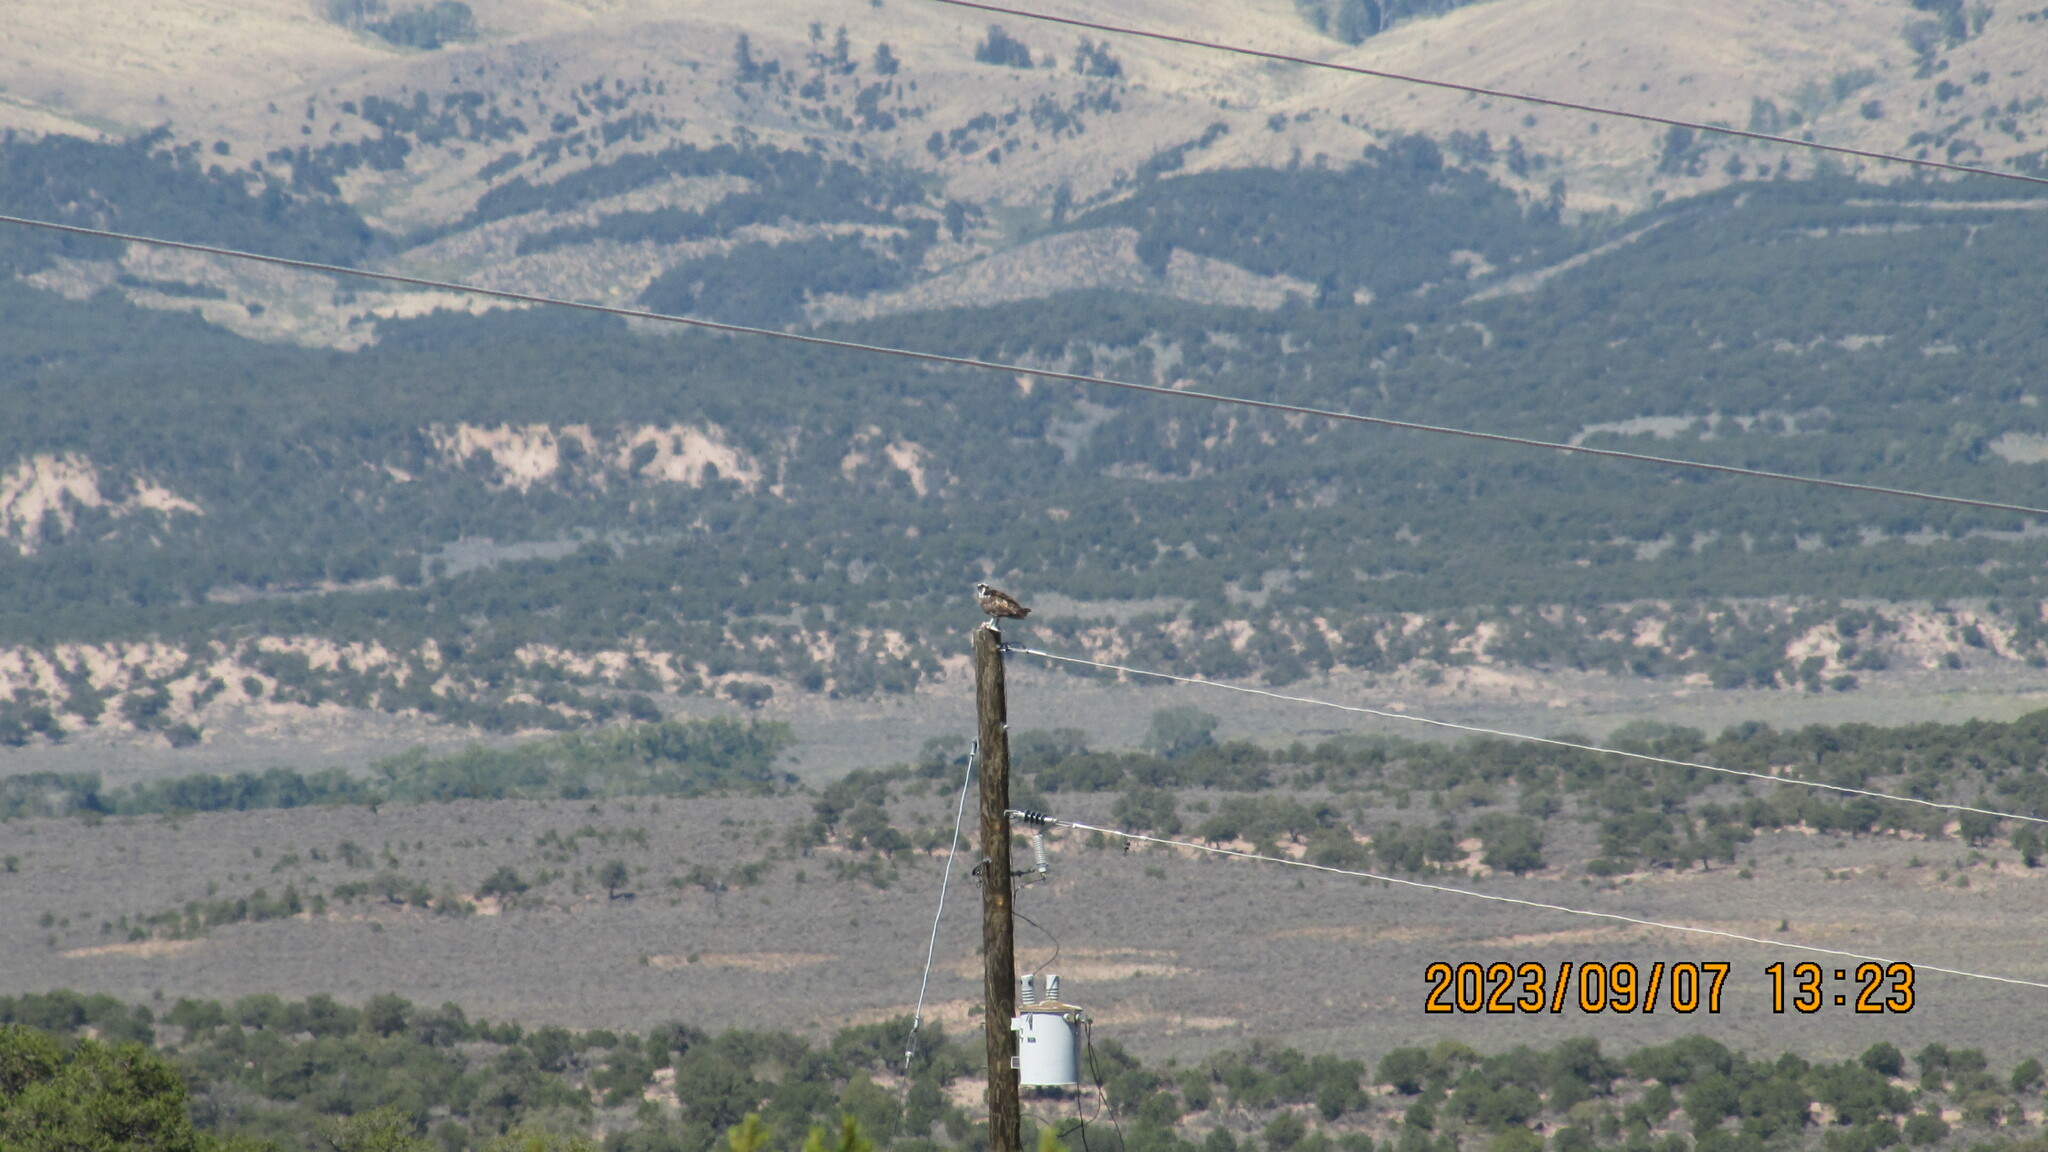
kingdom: Animalia
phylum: Chordata
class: Aves
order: Accipitriformes
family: Pandionidae
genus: Pandion
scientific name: Pandion haliaetus
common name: Osprey
